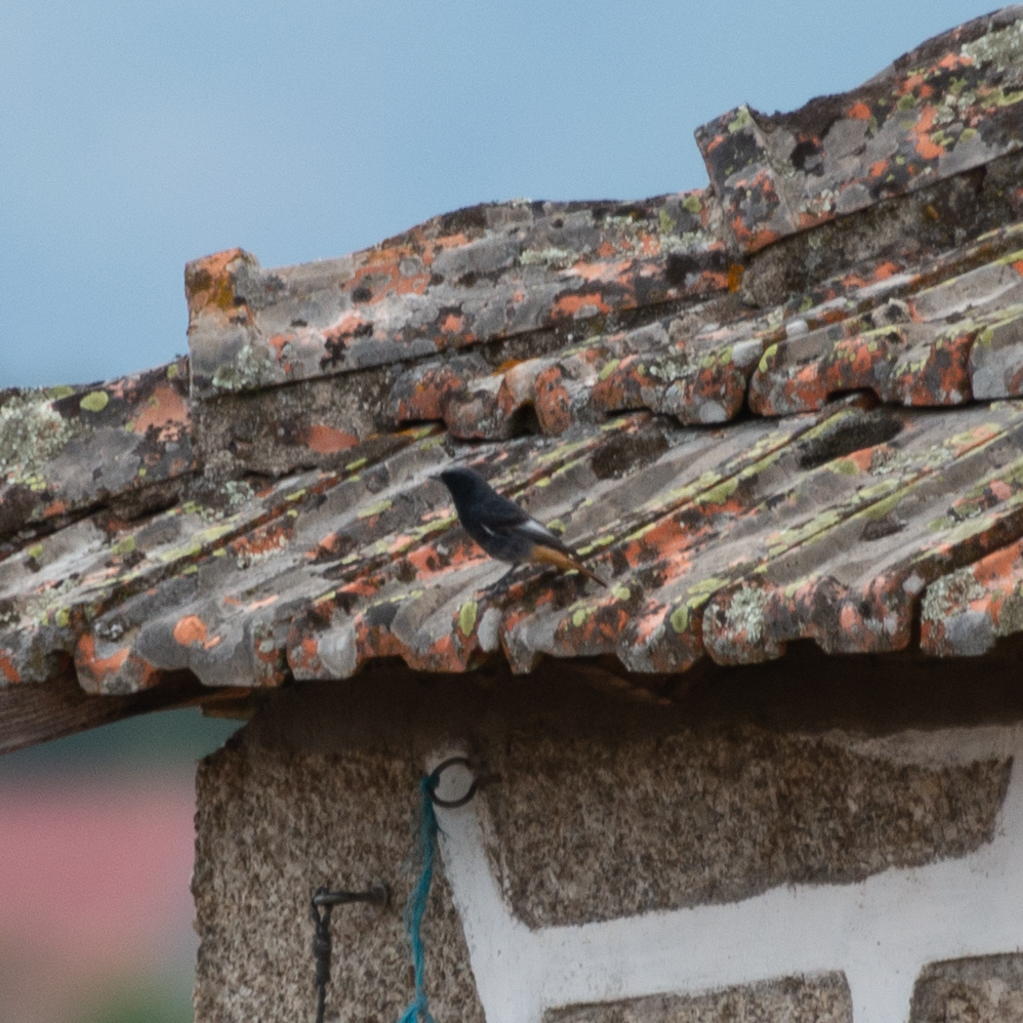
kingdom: Animalia
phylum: Chordata
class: Aves
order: Passeriformes
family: Muscicapidae
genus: Phoenicurus
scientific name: Phoenicurus ochruros
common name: Black redstart
